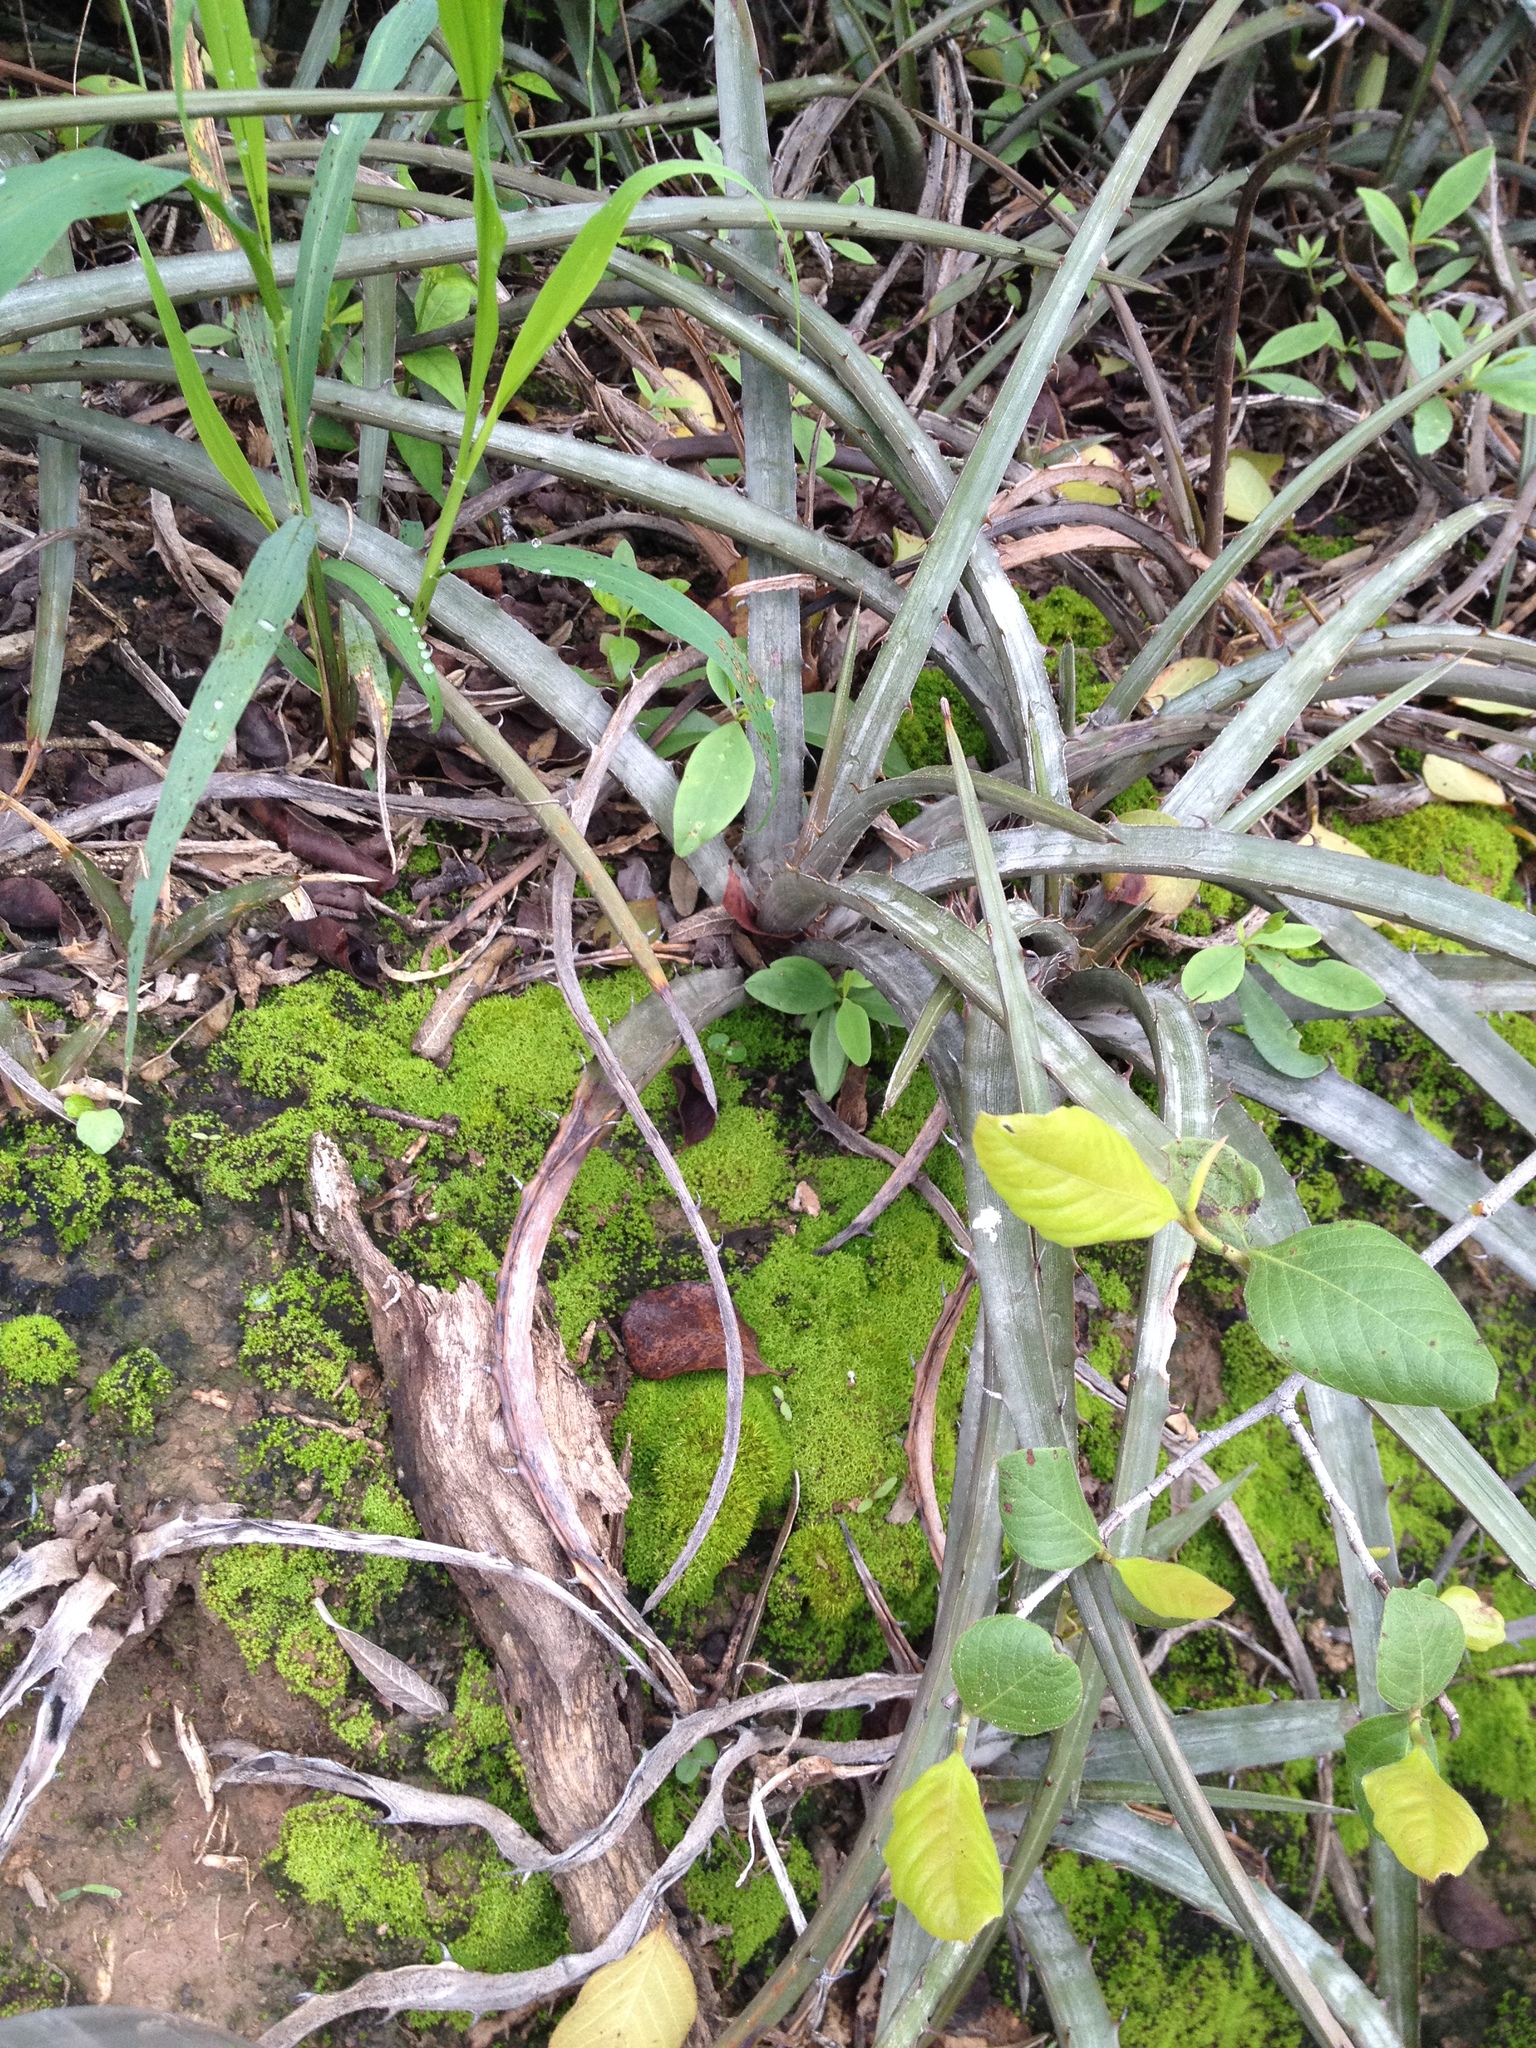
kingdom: Plantae
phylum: Tracheophyta
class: Liliopsida
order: Poales
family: Bromeliaceae
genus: Deinacanthon
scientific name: Deinacanthon urbanianum
